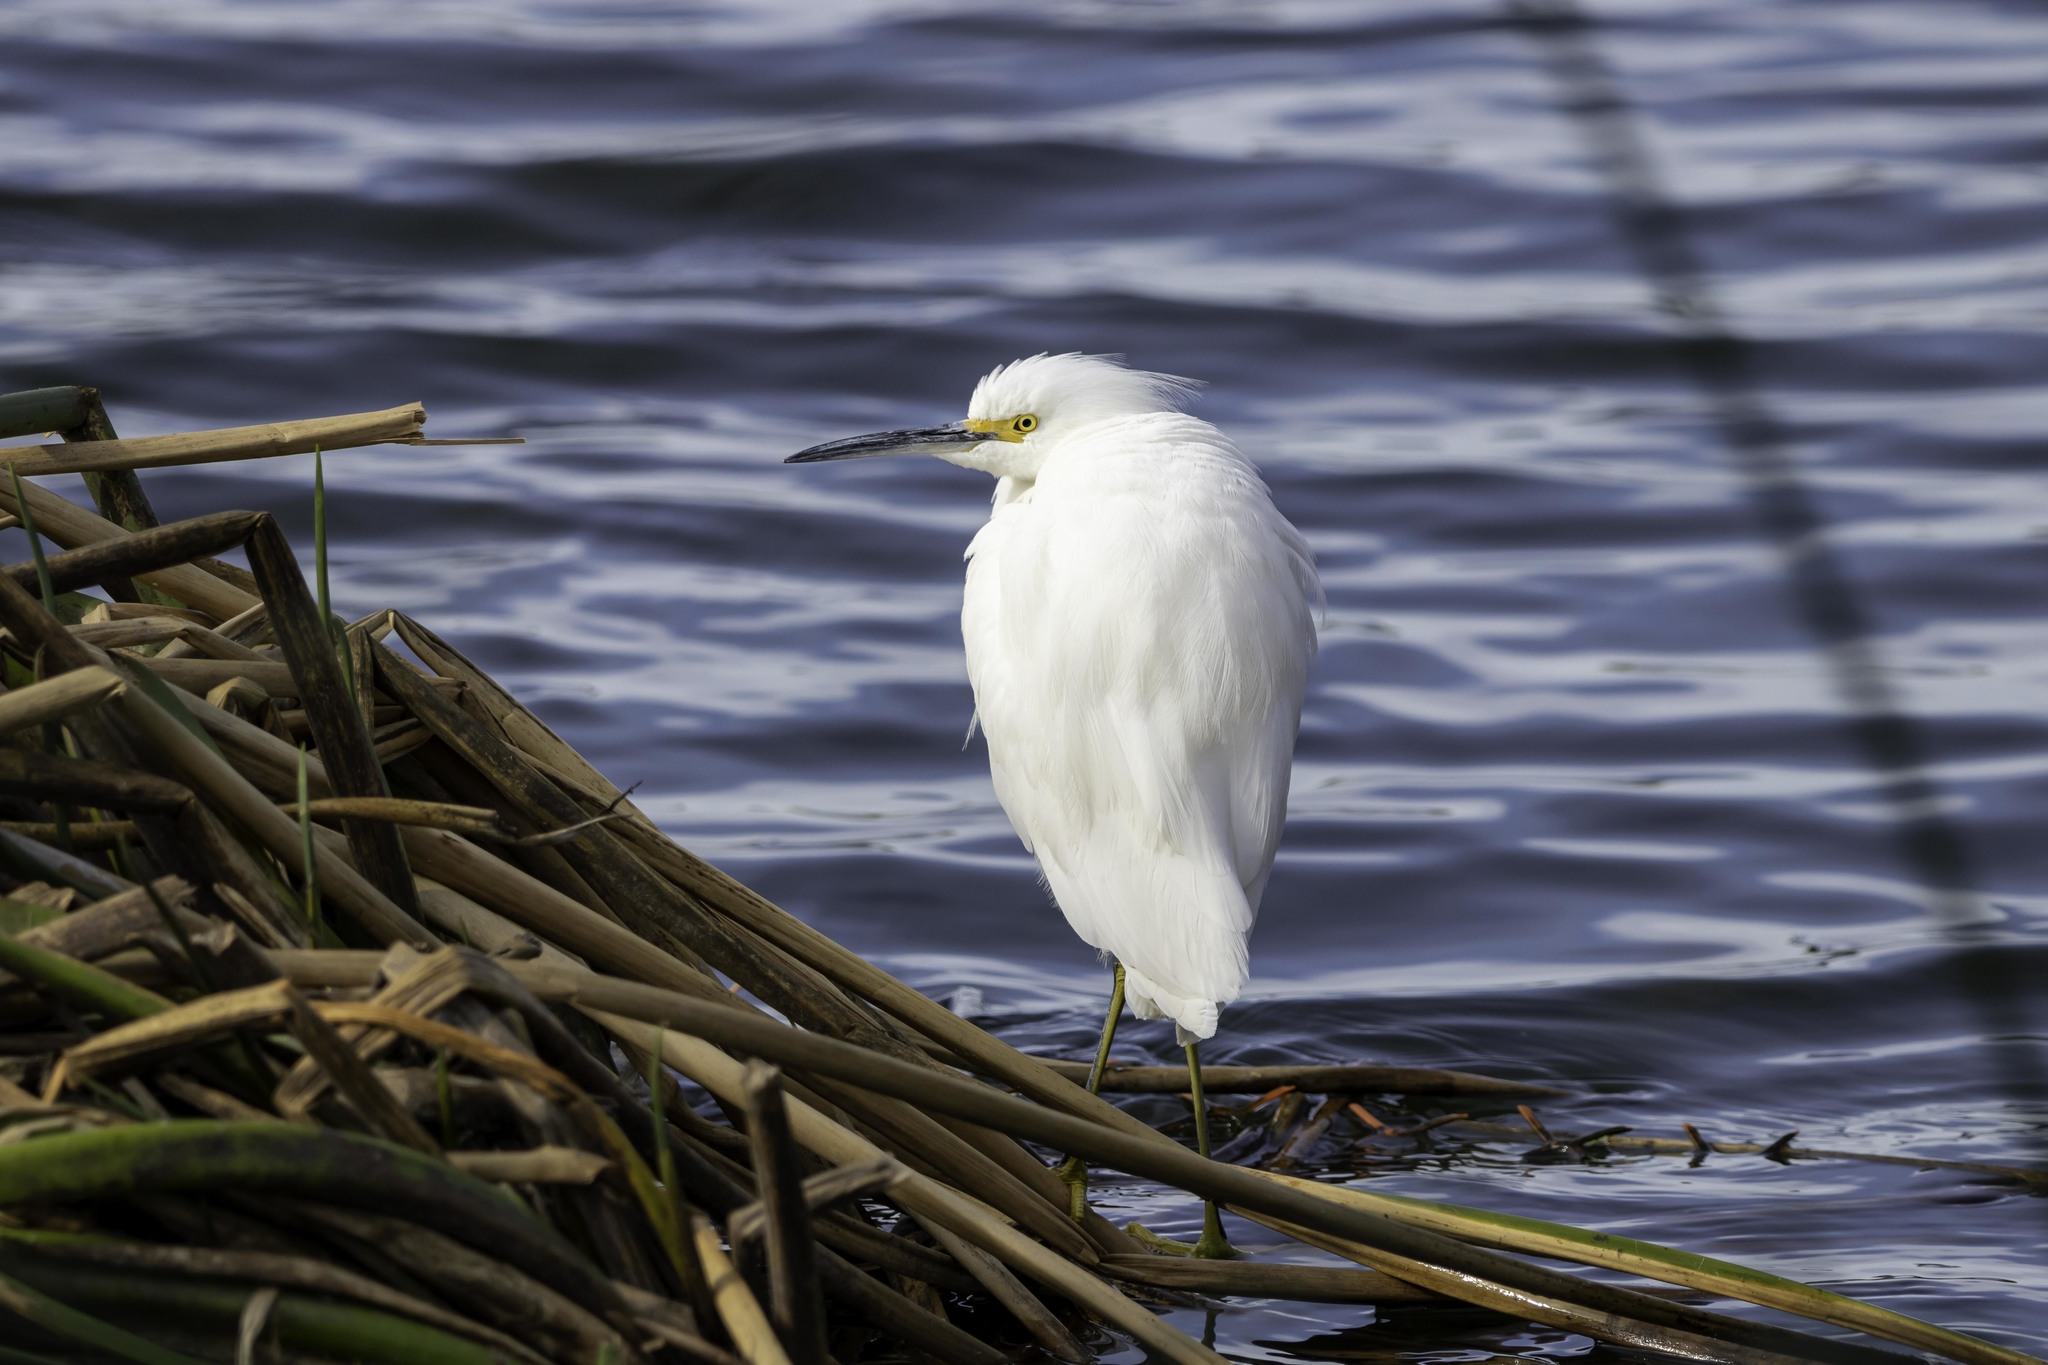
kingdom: Animalia
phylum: Chordata
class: Aves
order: Pelecaniformes
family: Ardeidae
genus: Egretta
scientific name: Egretta thula
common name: Snowy egret
